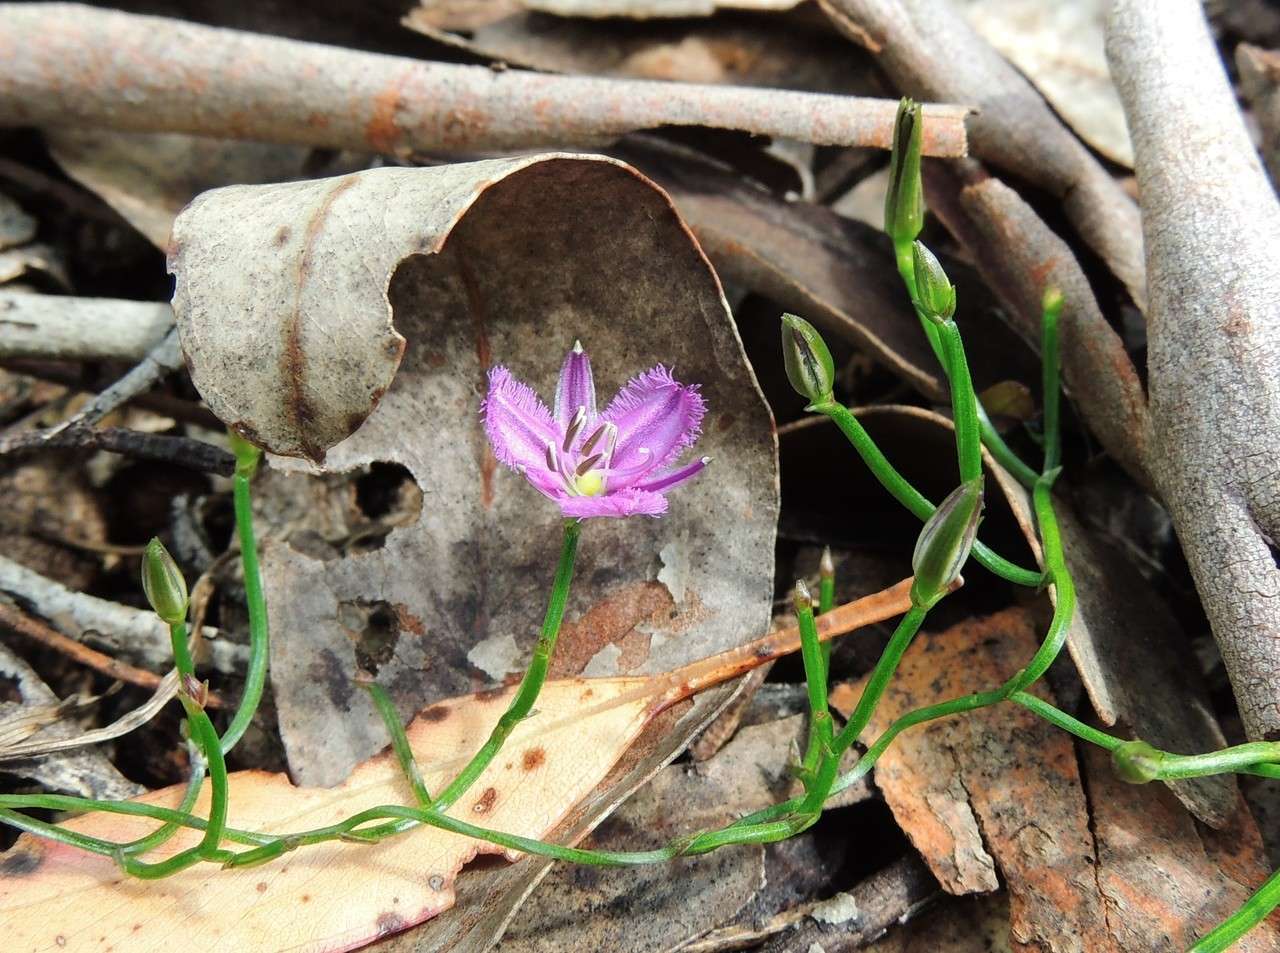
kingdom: Plantae
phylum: Tracheophyta
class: Liliopsida
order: Asparagales
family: Asparagaceae
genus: Thysanotus
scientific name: Thysanotus patersonii
